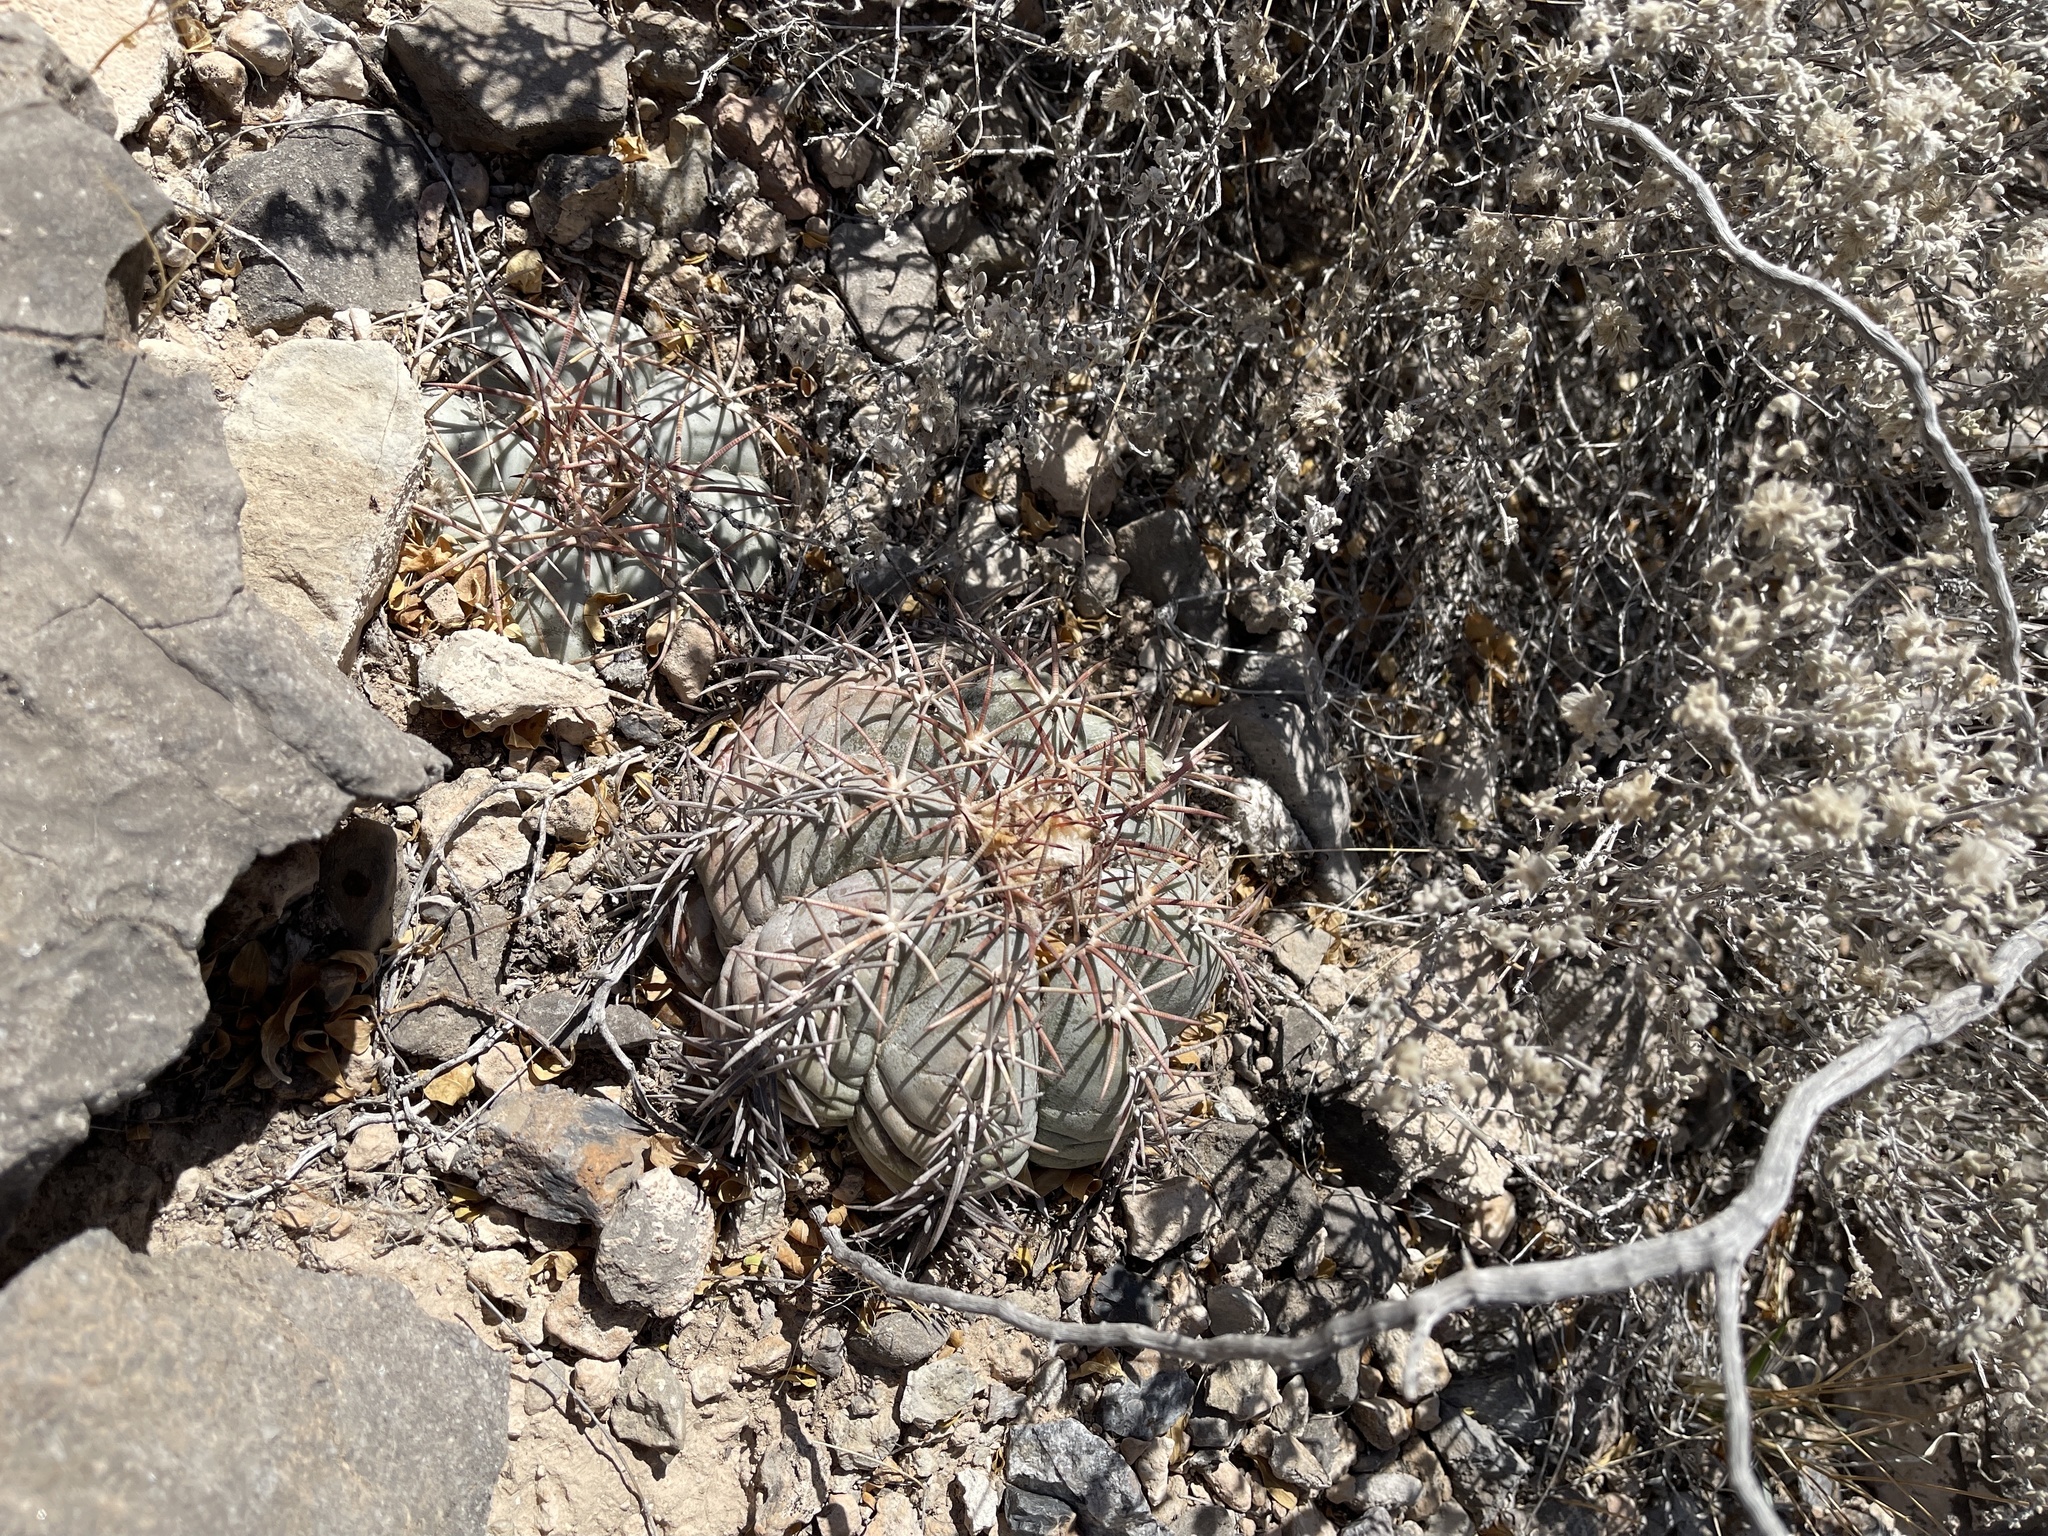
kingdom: Plantae
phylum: Tracheophyta
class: Magnoliopsida
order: Caryophyllales
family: Cactaceae
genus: Echinocactus
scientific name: Echinocactus horizonthalonius
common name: Devilshead
